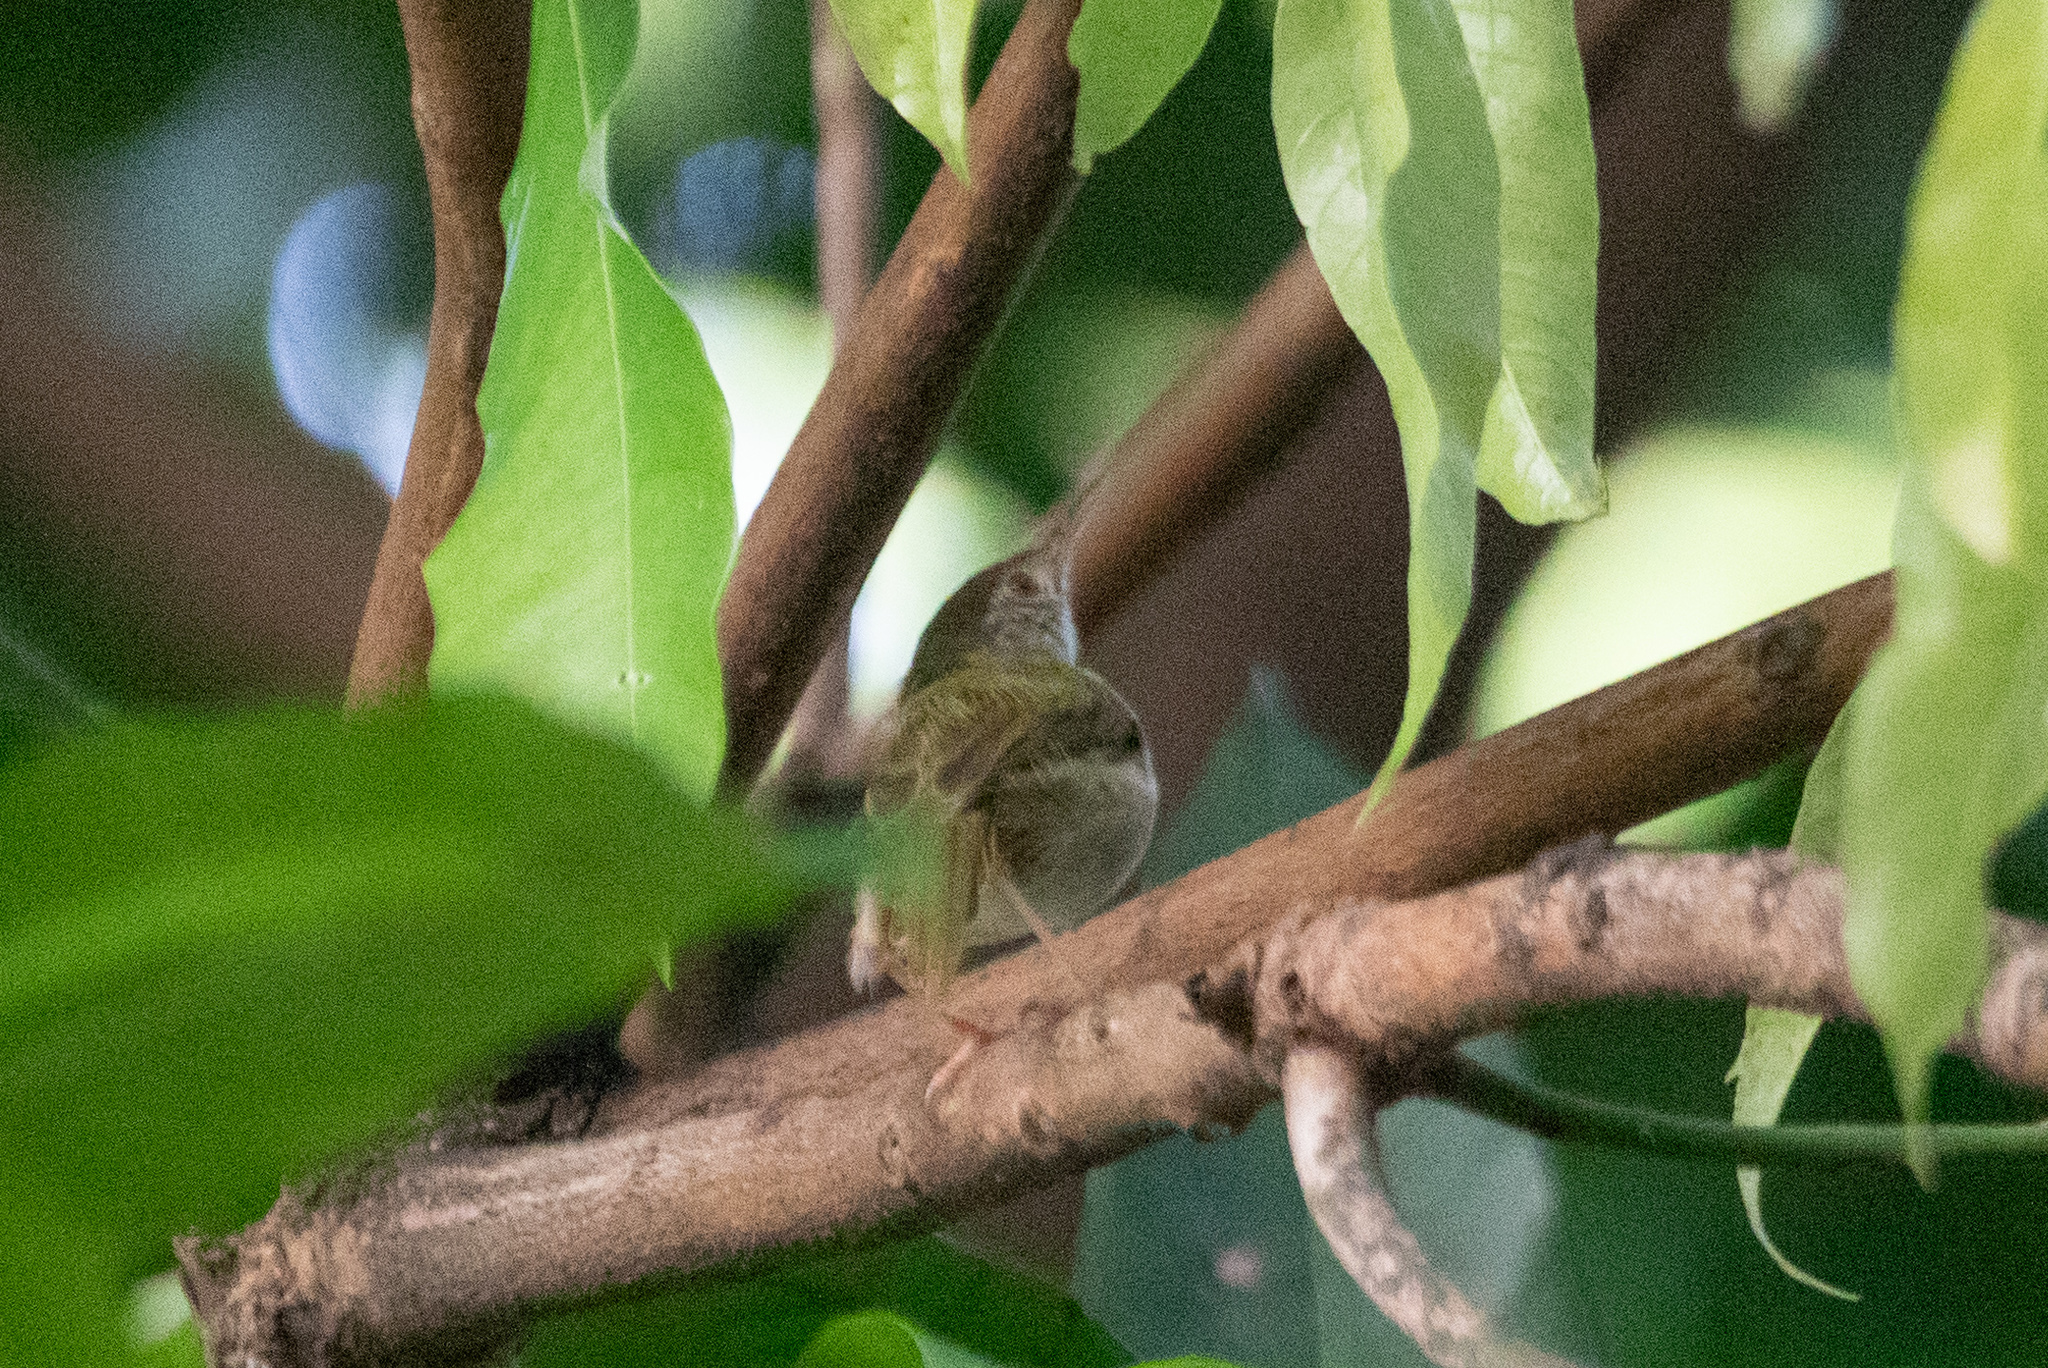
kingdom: Animalia
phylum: Chordata
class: Aves
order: Passeriformes
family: Cisticolidae
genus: Orthotomus
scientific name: Orthotomus sutorius
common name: Common tailorbird
